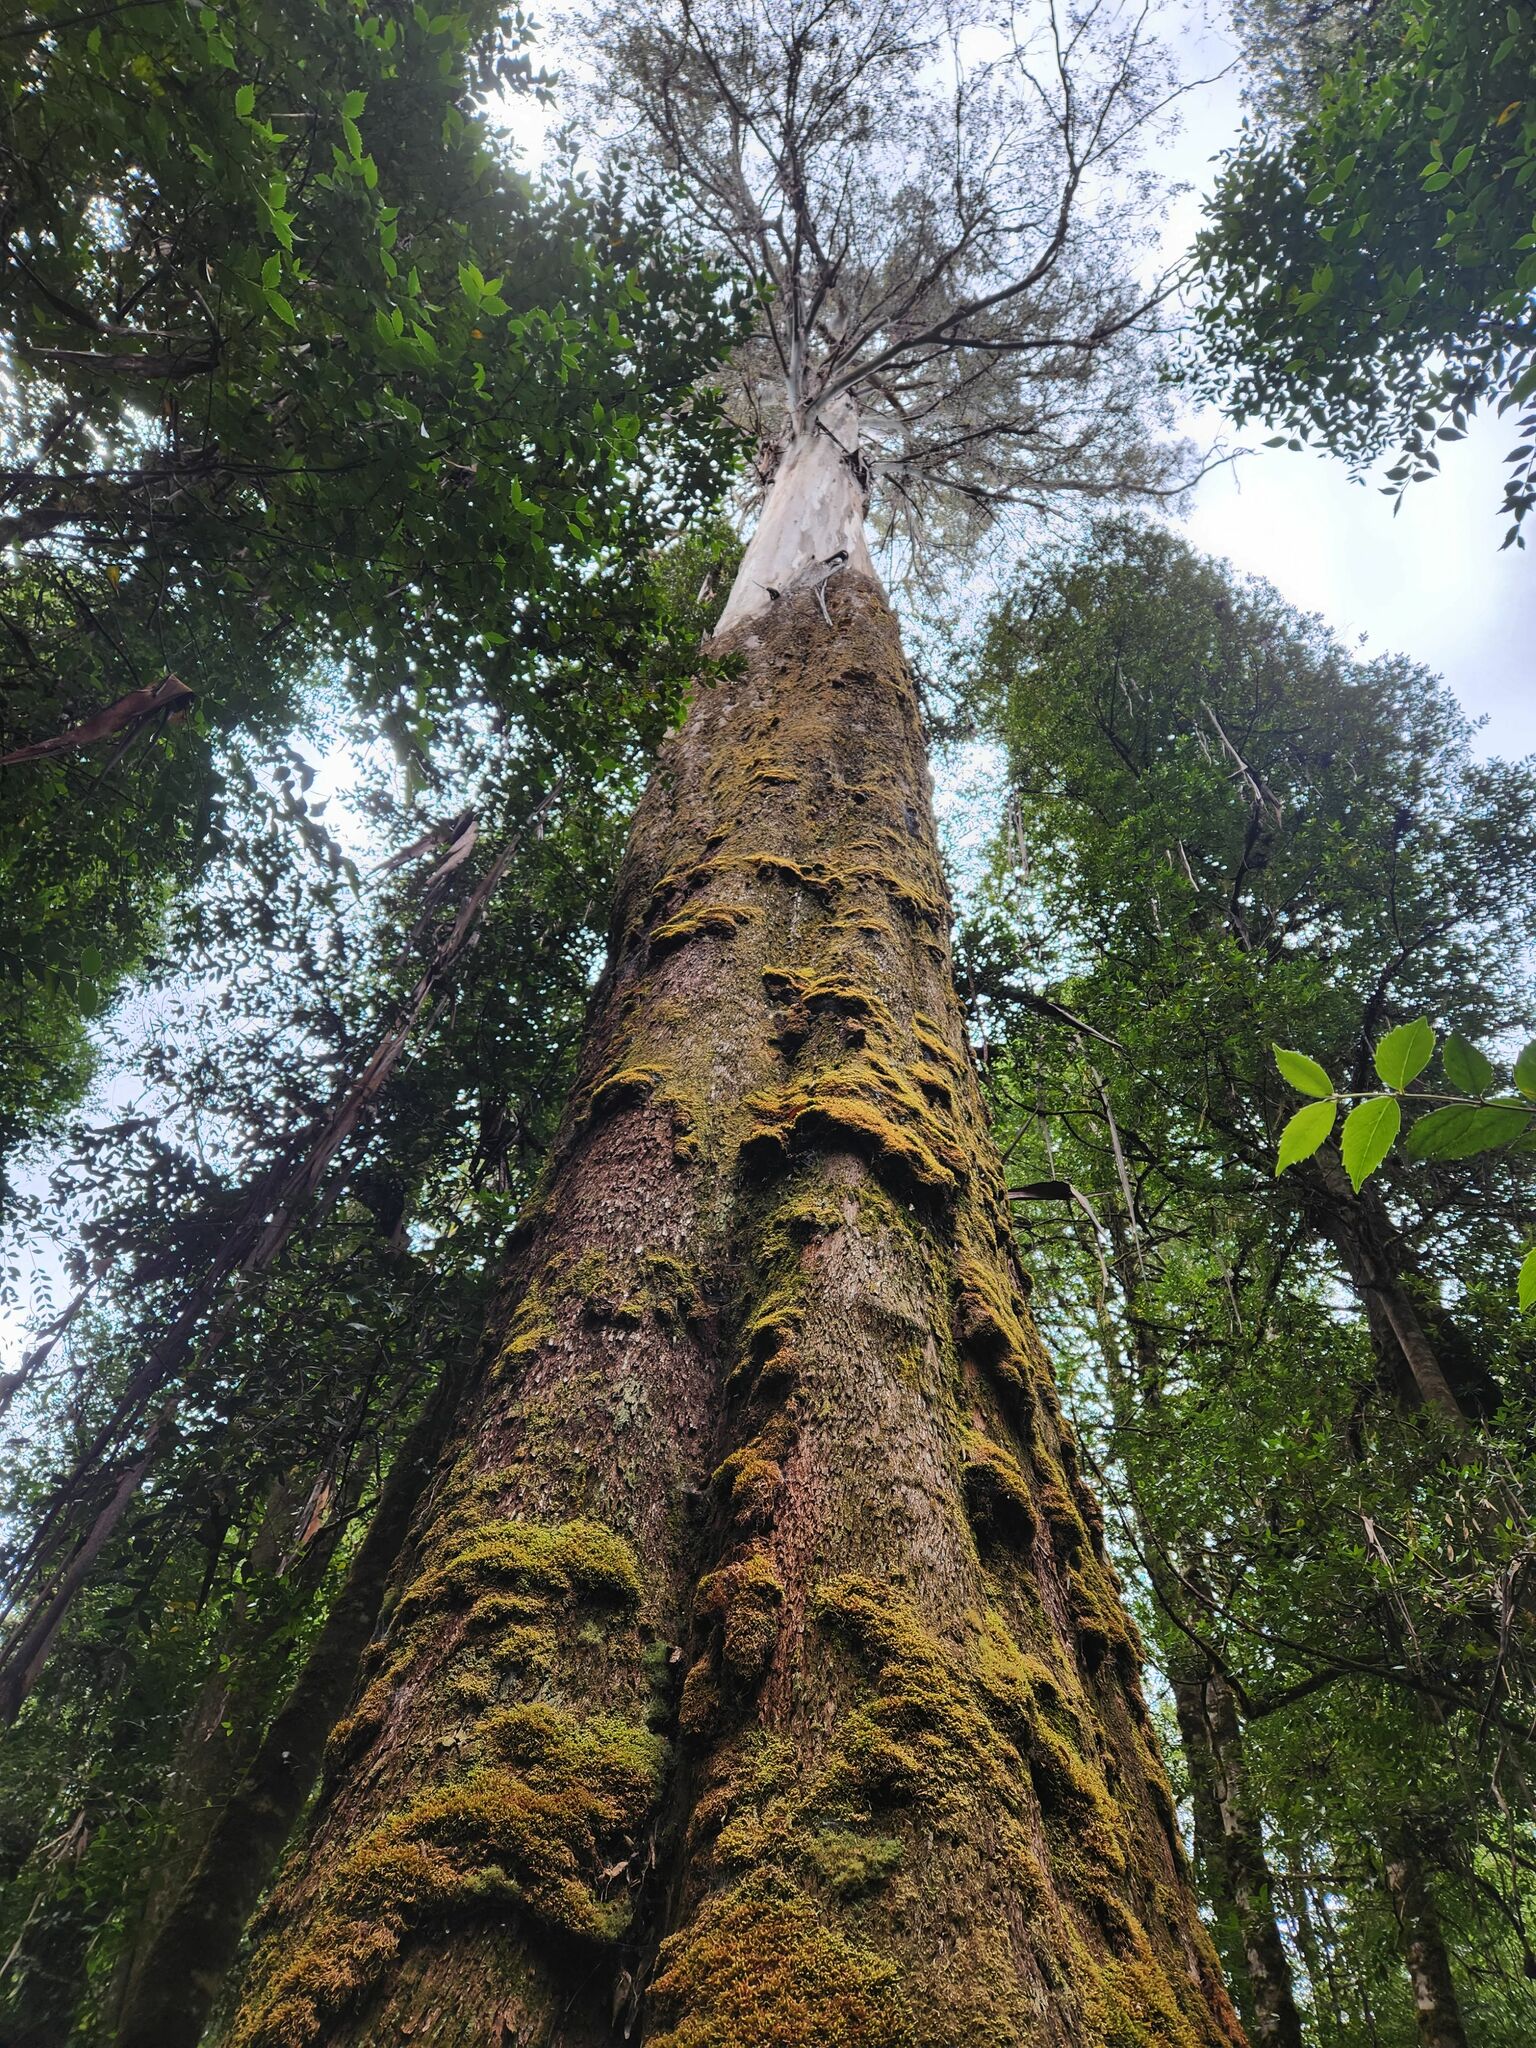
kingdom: Plantae
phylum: Tracheophyta
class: Magnoliopsida
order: Myrtales
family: Myrtaceae
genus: Eucalyptus
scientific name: Eucalyptus regnans
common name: Stringy gum
